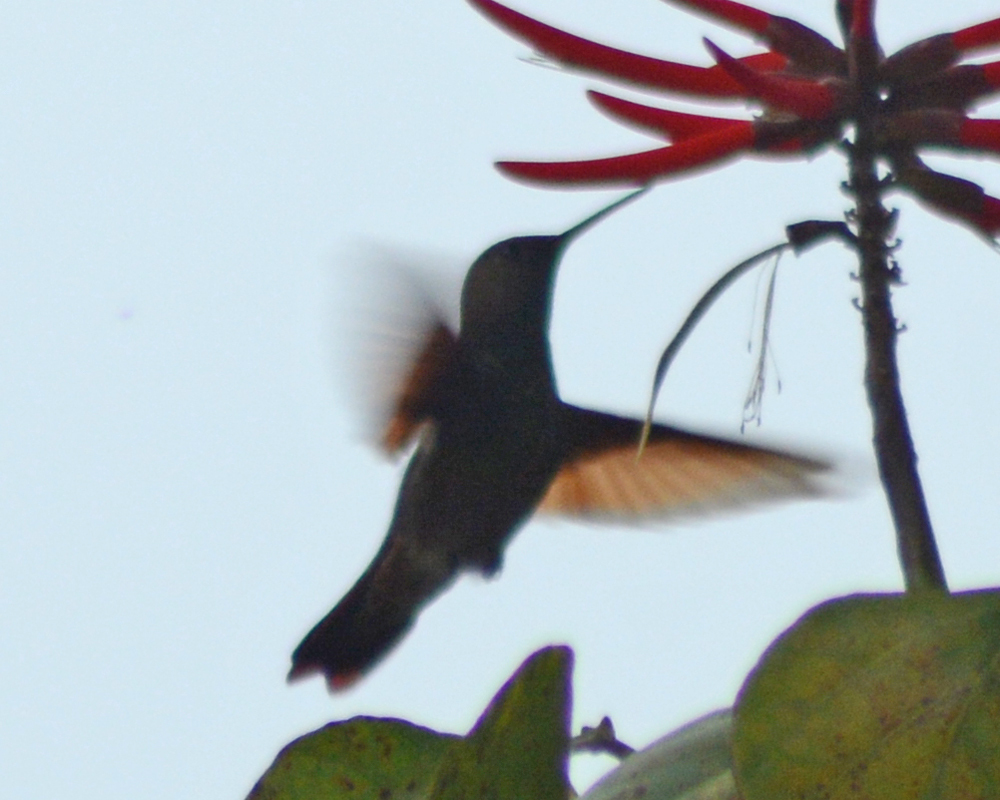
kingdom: Animalia
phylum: Chordata
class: Aves
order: Apodiformes
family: Trochilidae
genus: Saucerottia
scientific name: Saucerottia beryllina
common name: Berylline hummingbird
